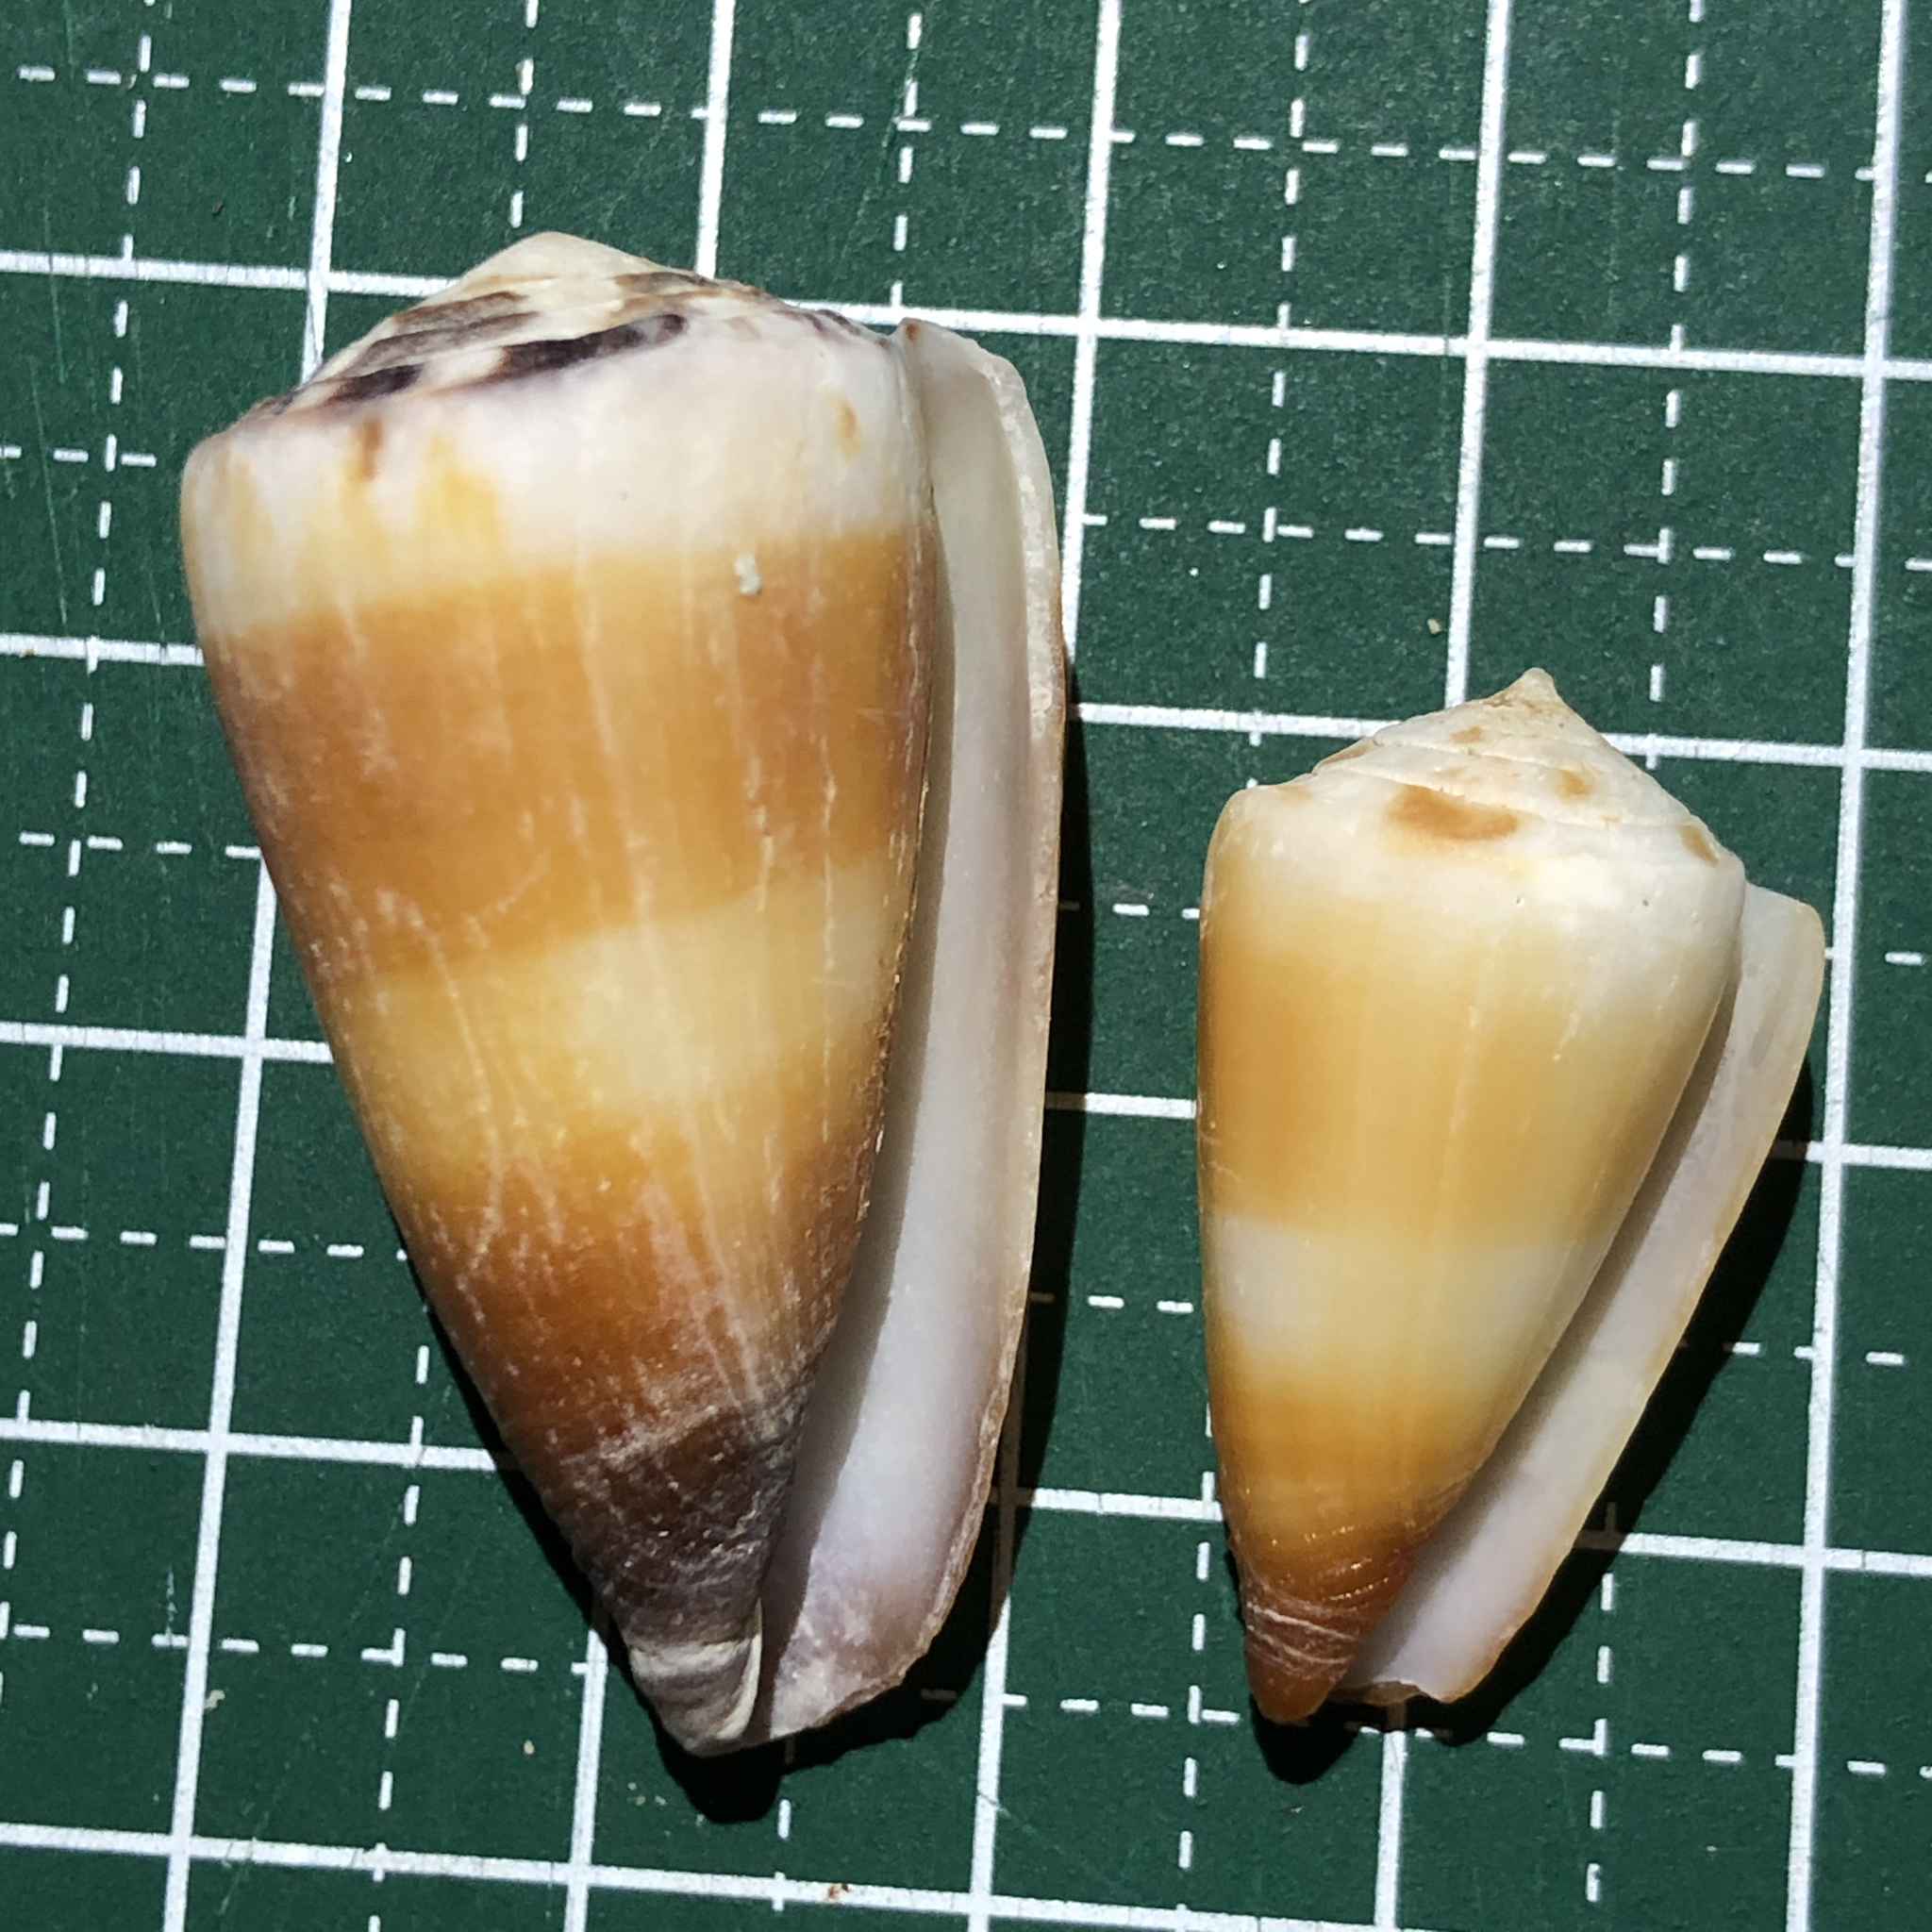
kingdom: Animalia
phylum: Mollusca
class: Gastropoda
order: Neogastropoda
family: Conidae
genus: Conus
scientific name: Conus planorbis
